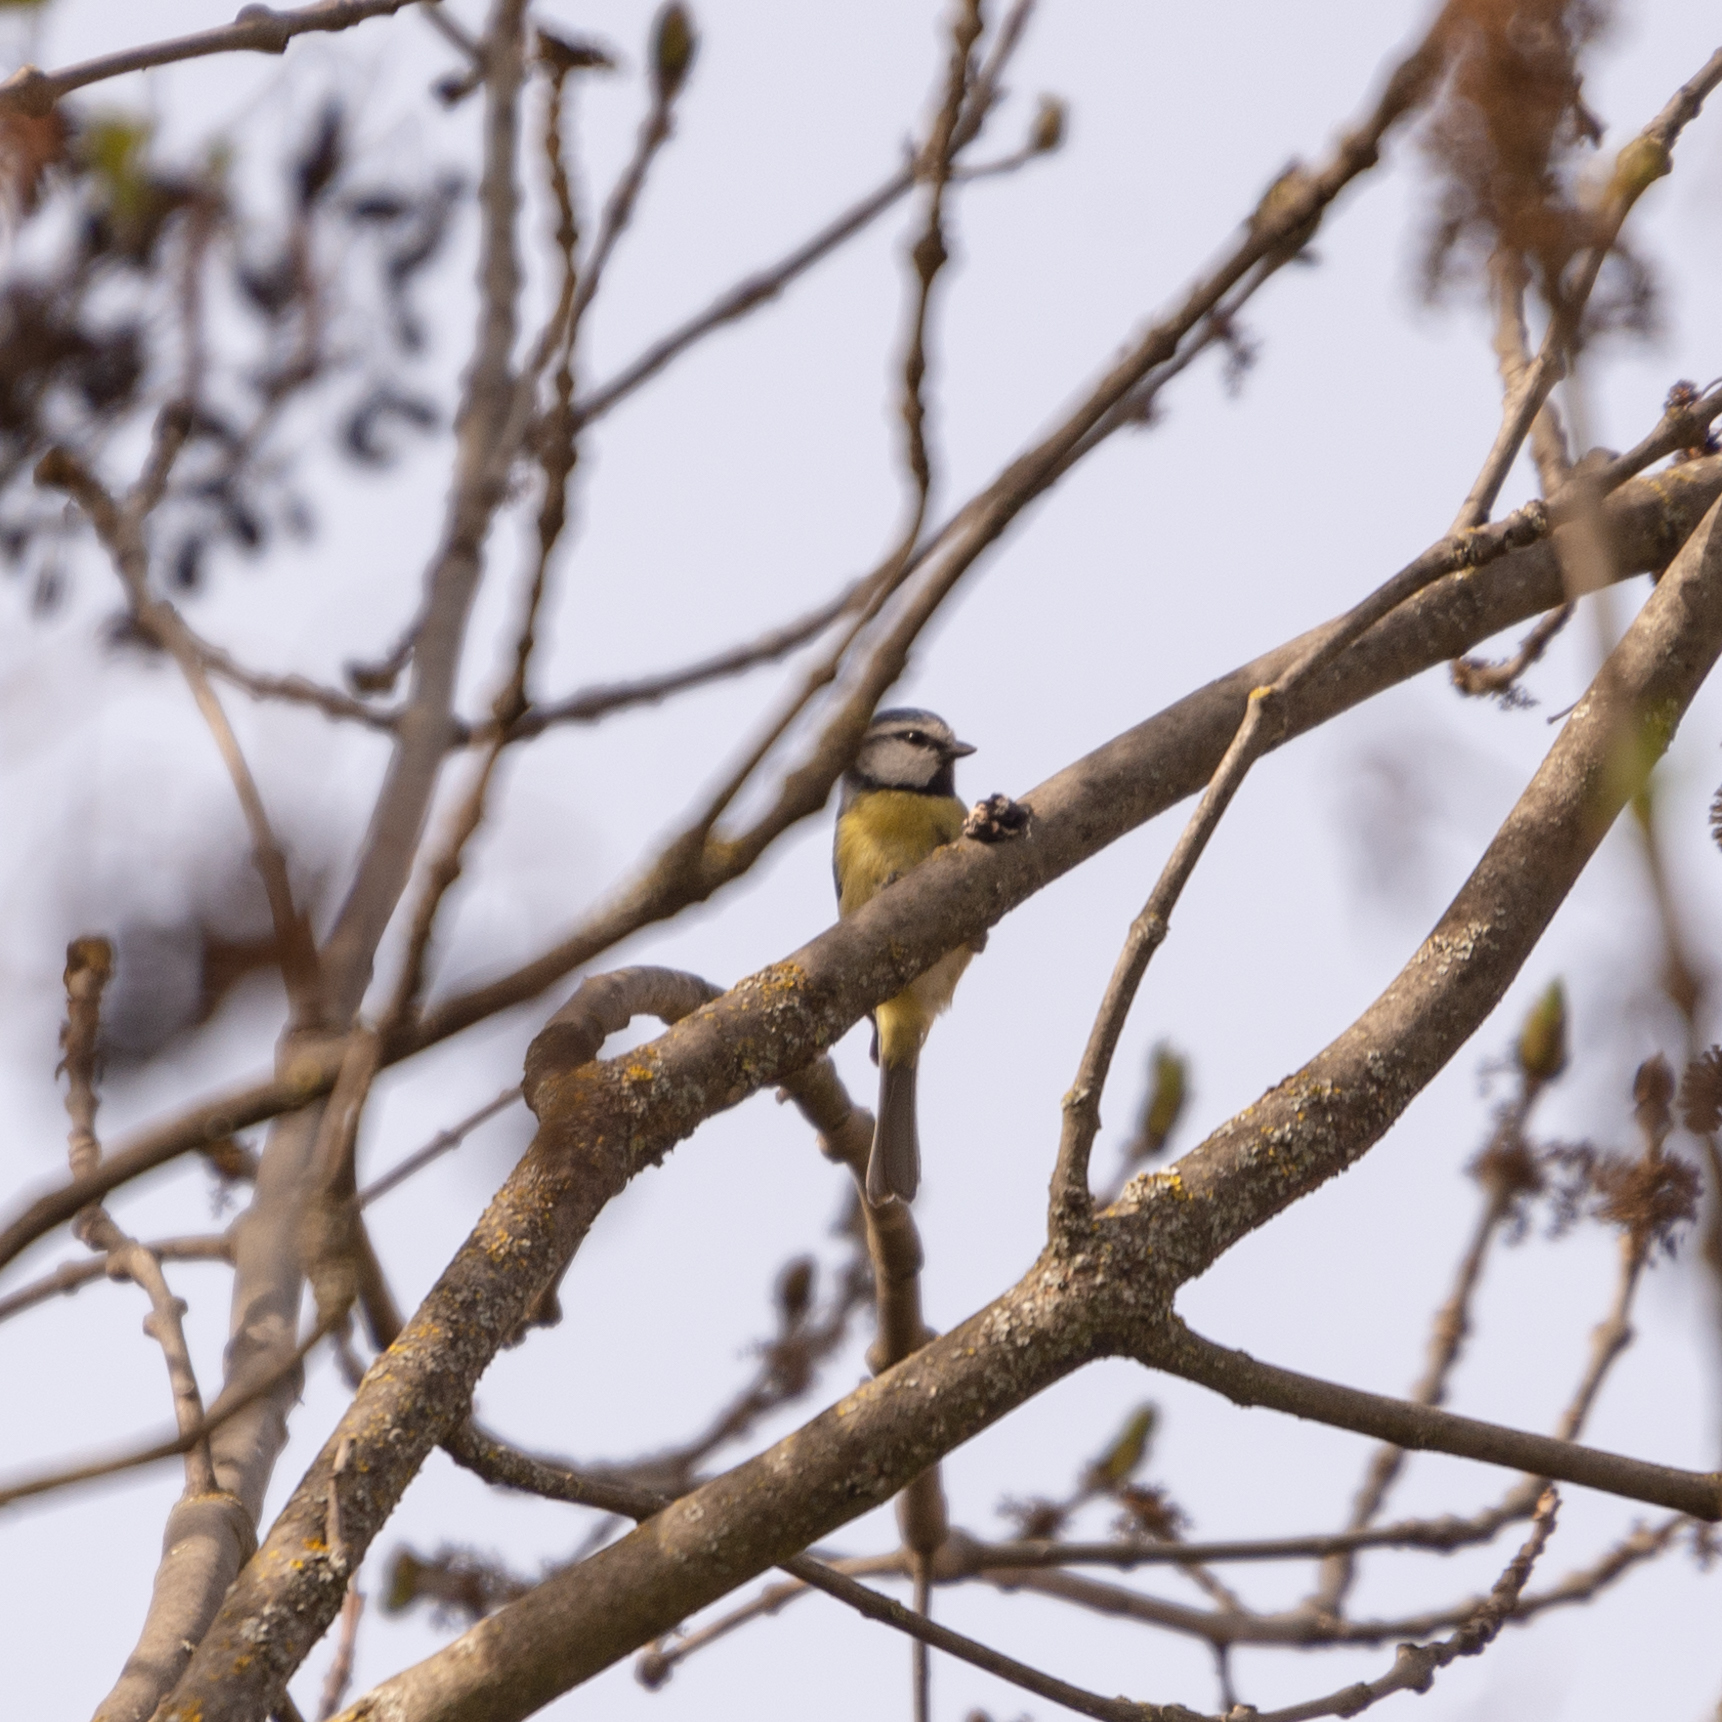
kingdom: Animalia
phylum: Chordata
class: Aves
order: Passeriformes
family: Paridae
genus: Cyanistes
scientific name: Cyanistes caeruleus
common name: Eurasian blue tit
